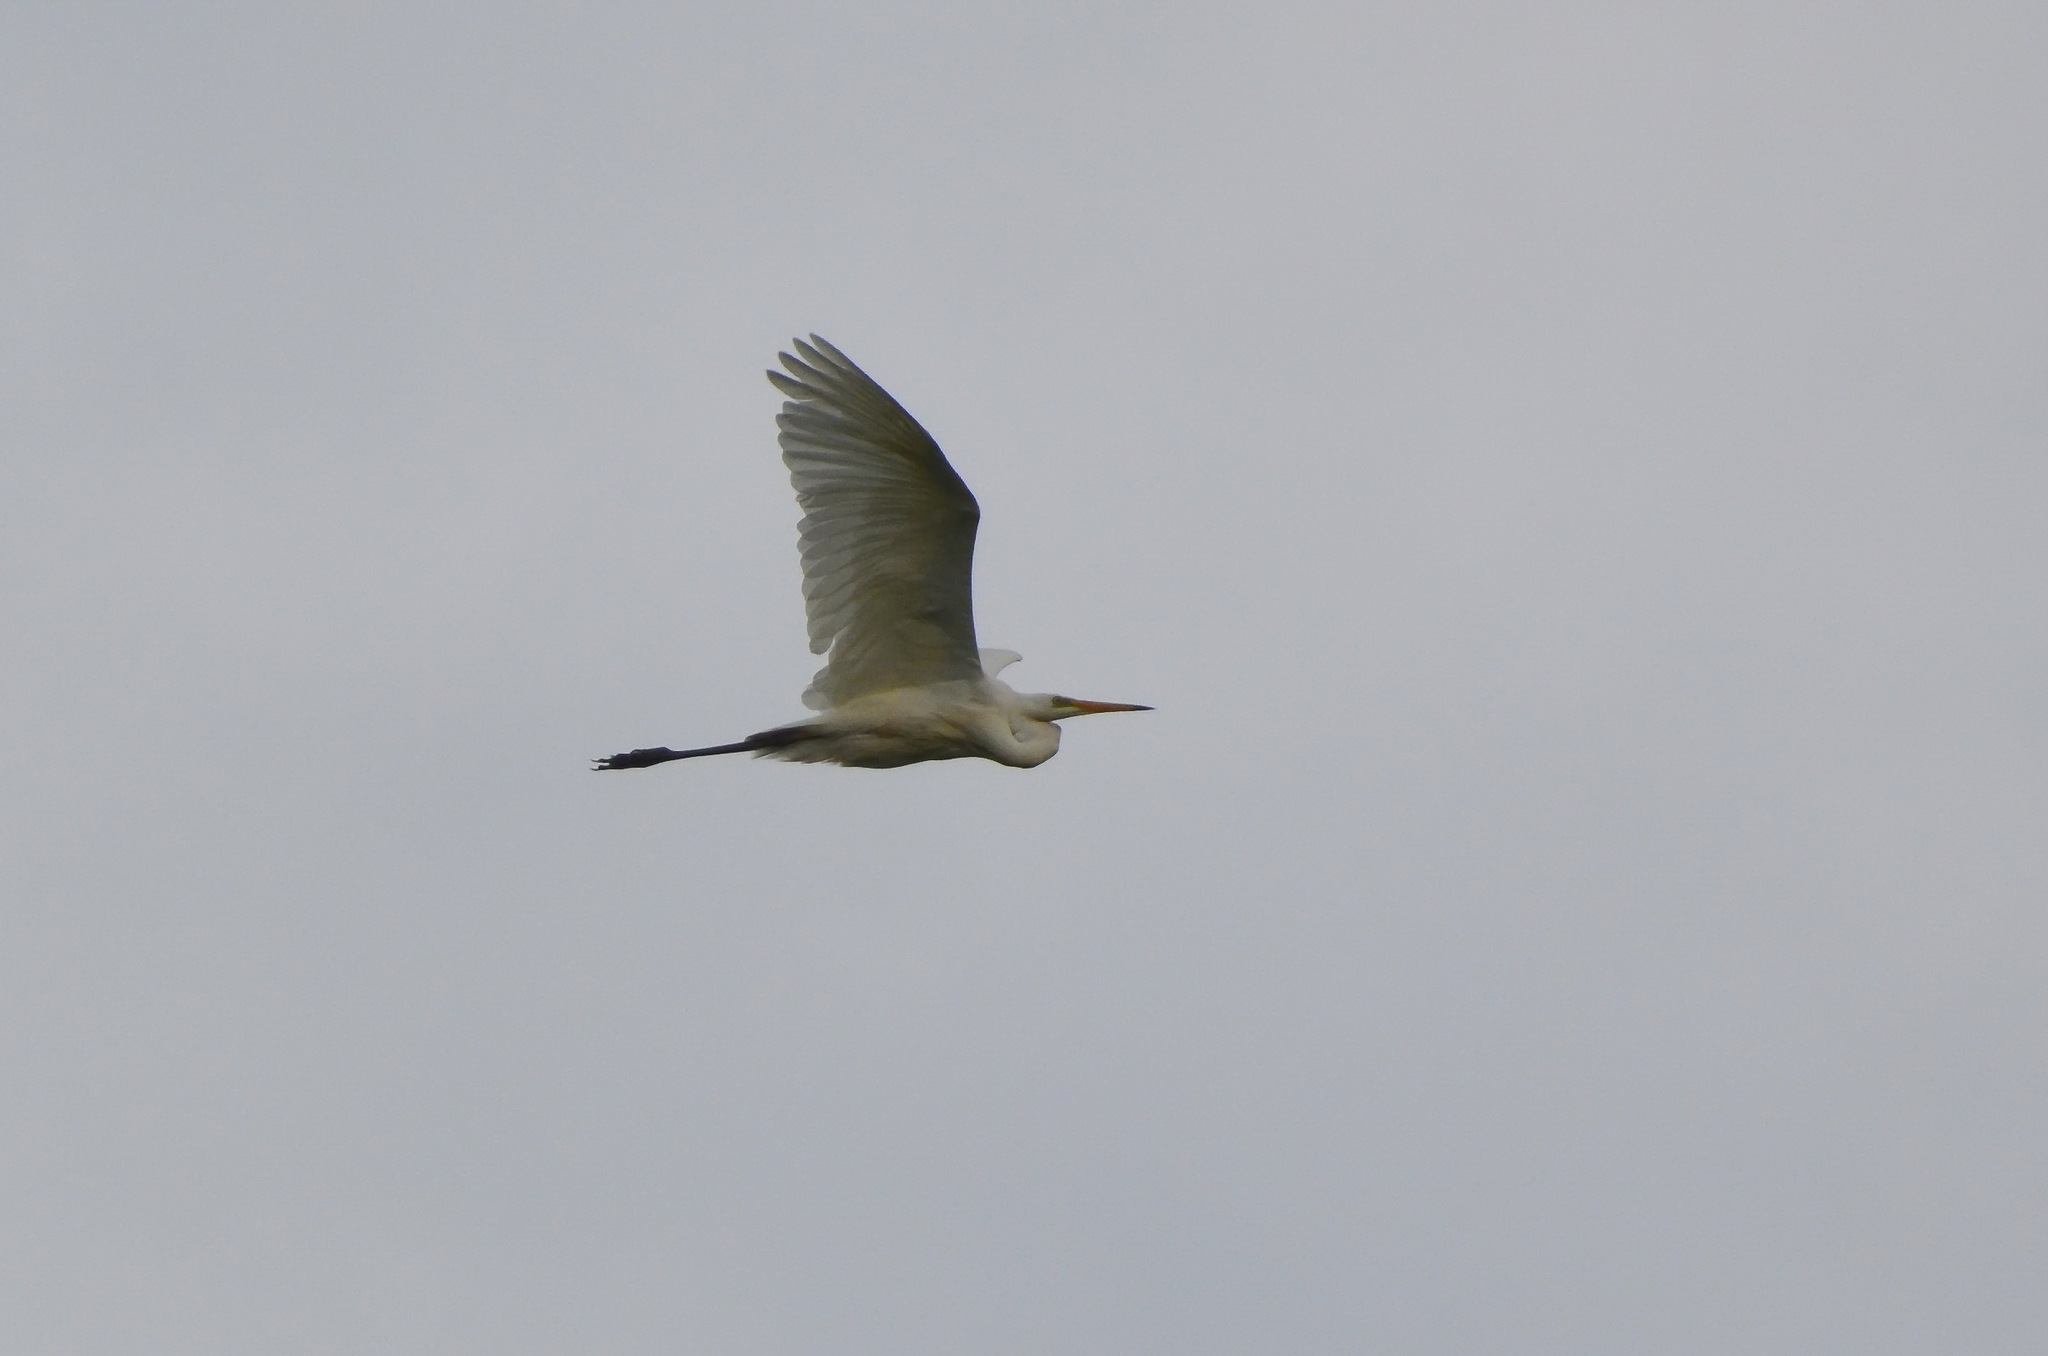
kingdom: Animalia
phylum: Chordata
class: Aves
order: Pelecaniformes
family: Ardeidae
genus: Ardea
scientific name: Ardea alba
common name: Great egret
